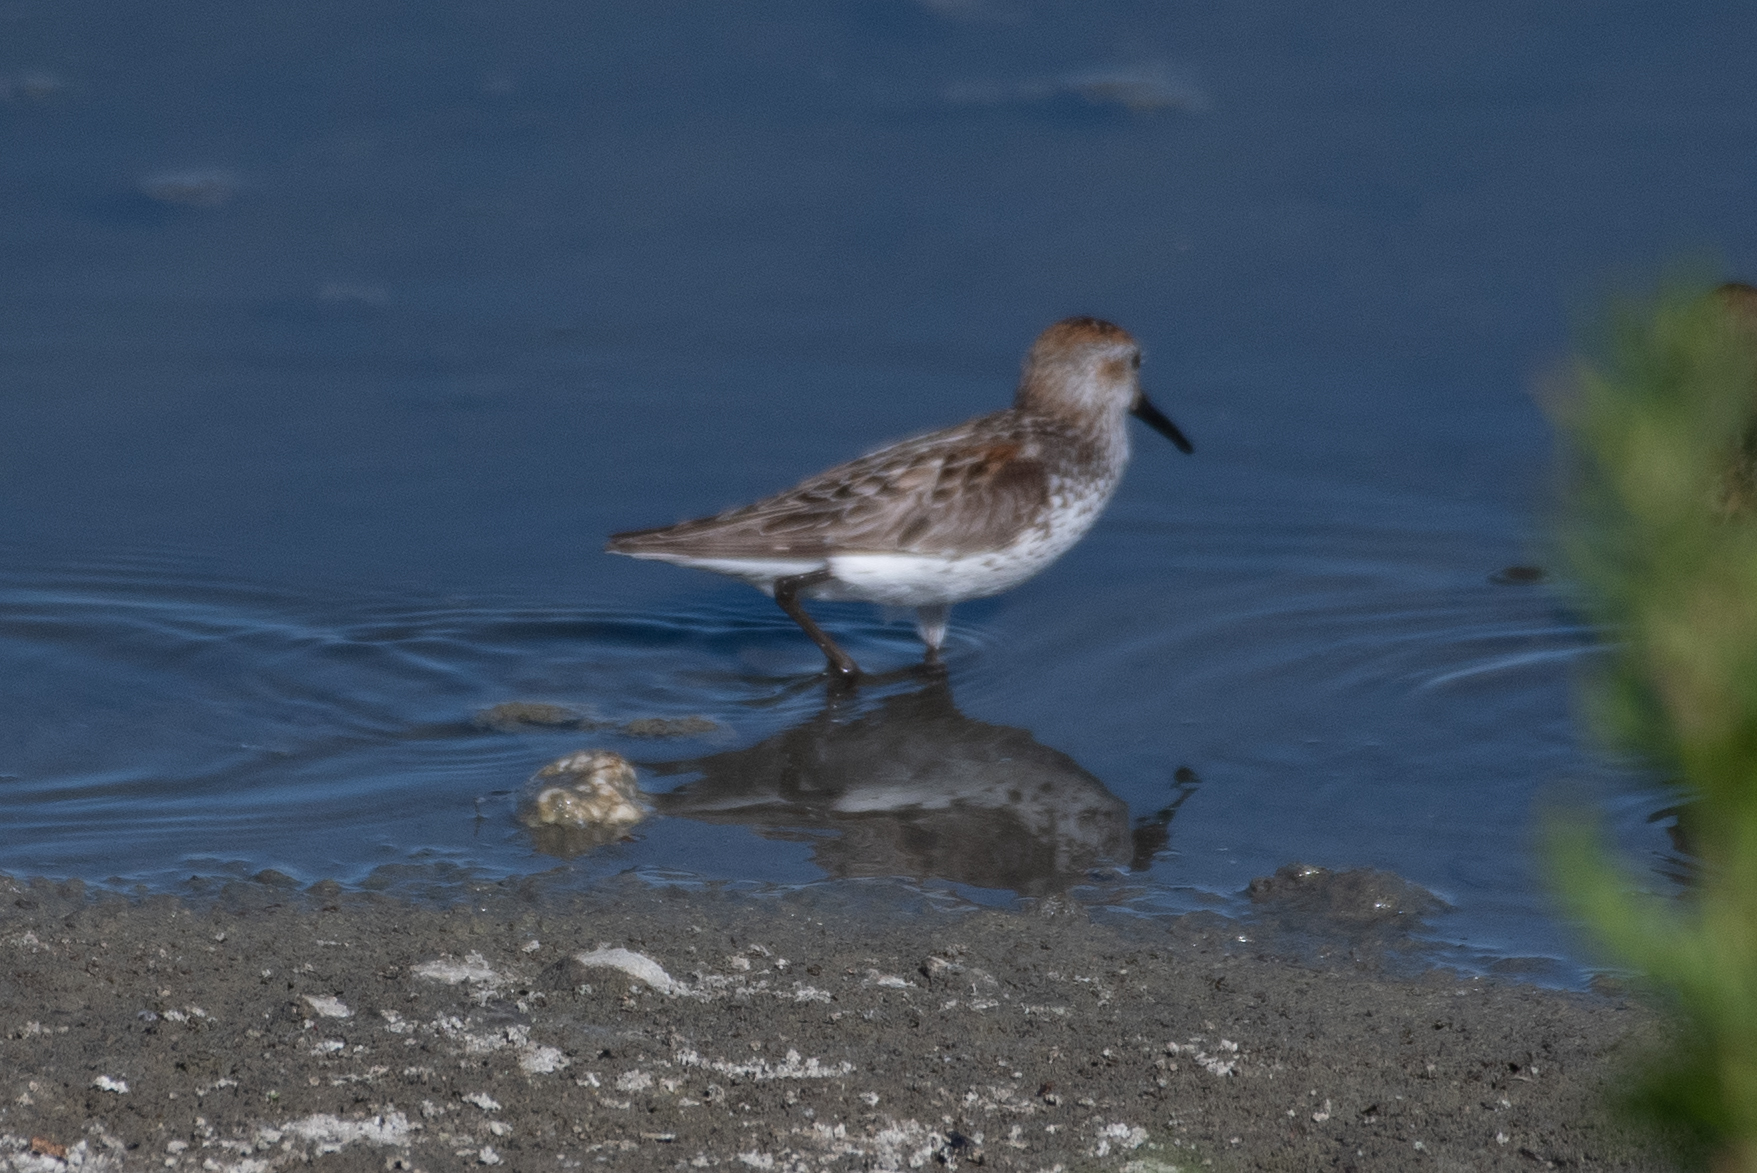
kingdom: Animalia
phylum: Chordata
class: Aves
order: Charadriiformes
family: Scolopacidae
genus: Calidris
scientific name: Calidris mauri
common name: Western sandpiper
